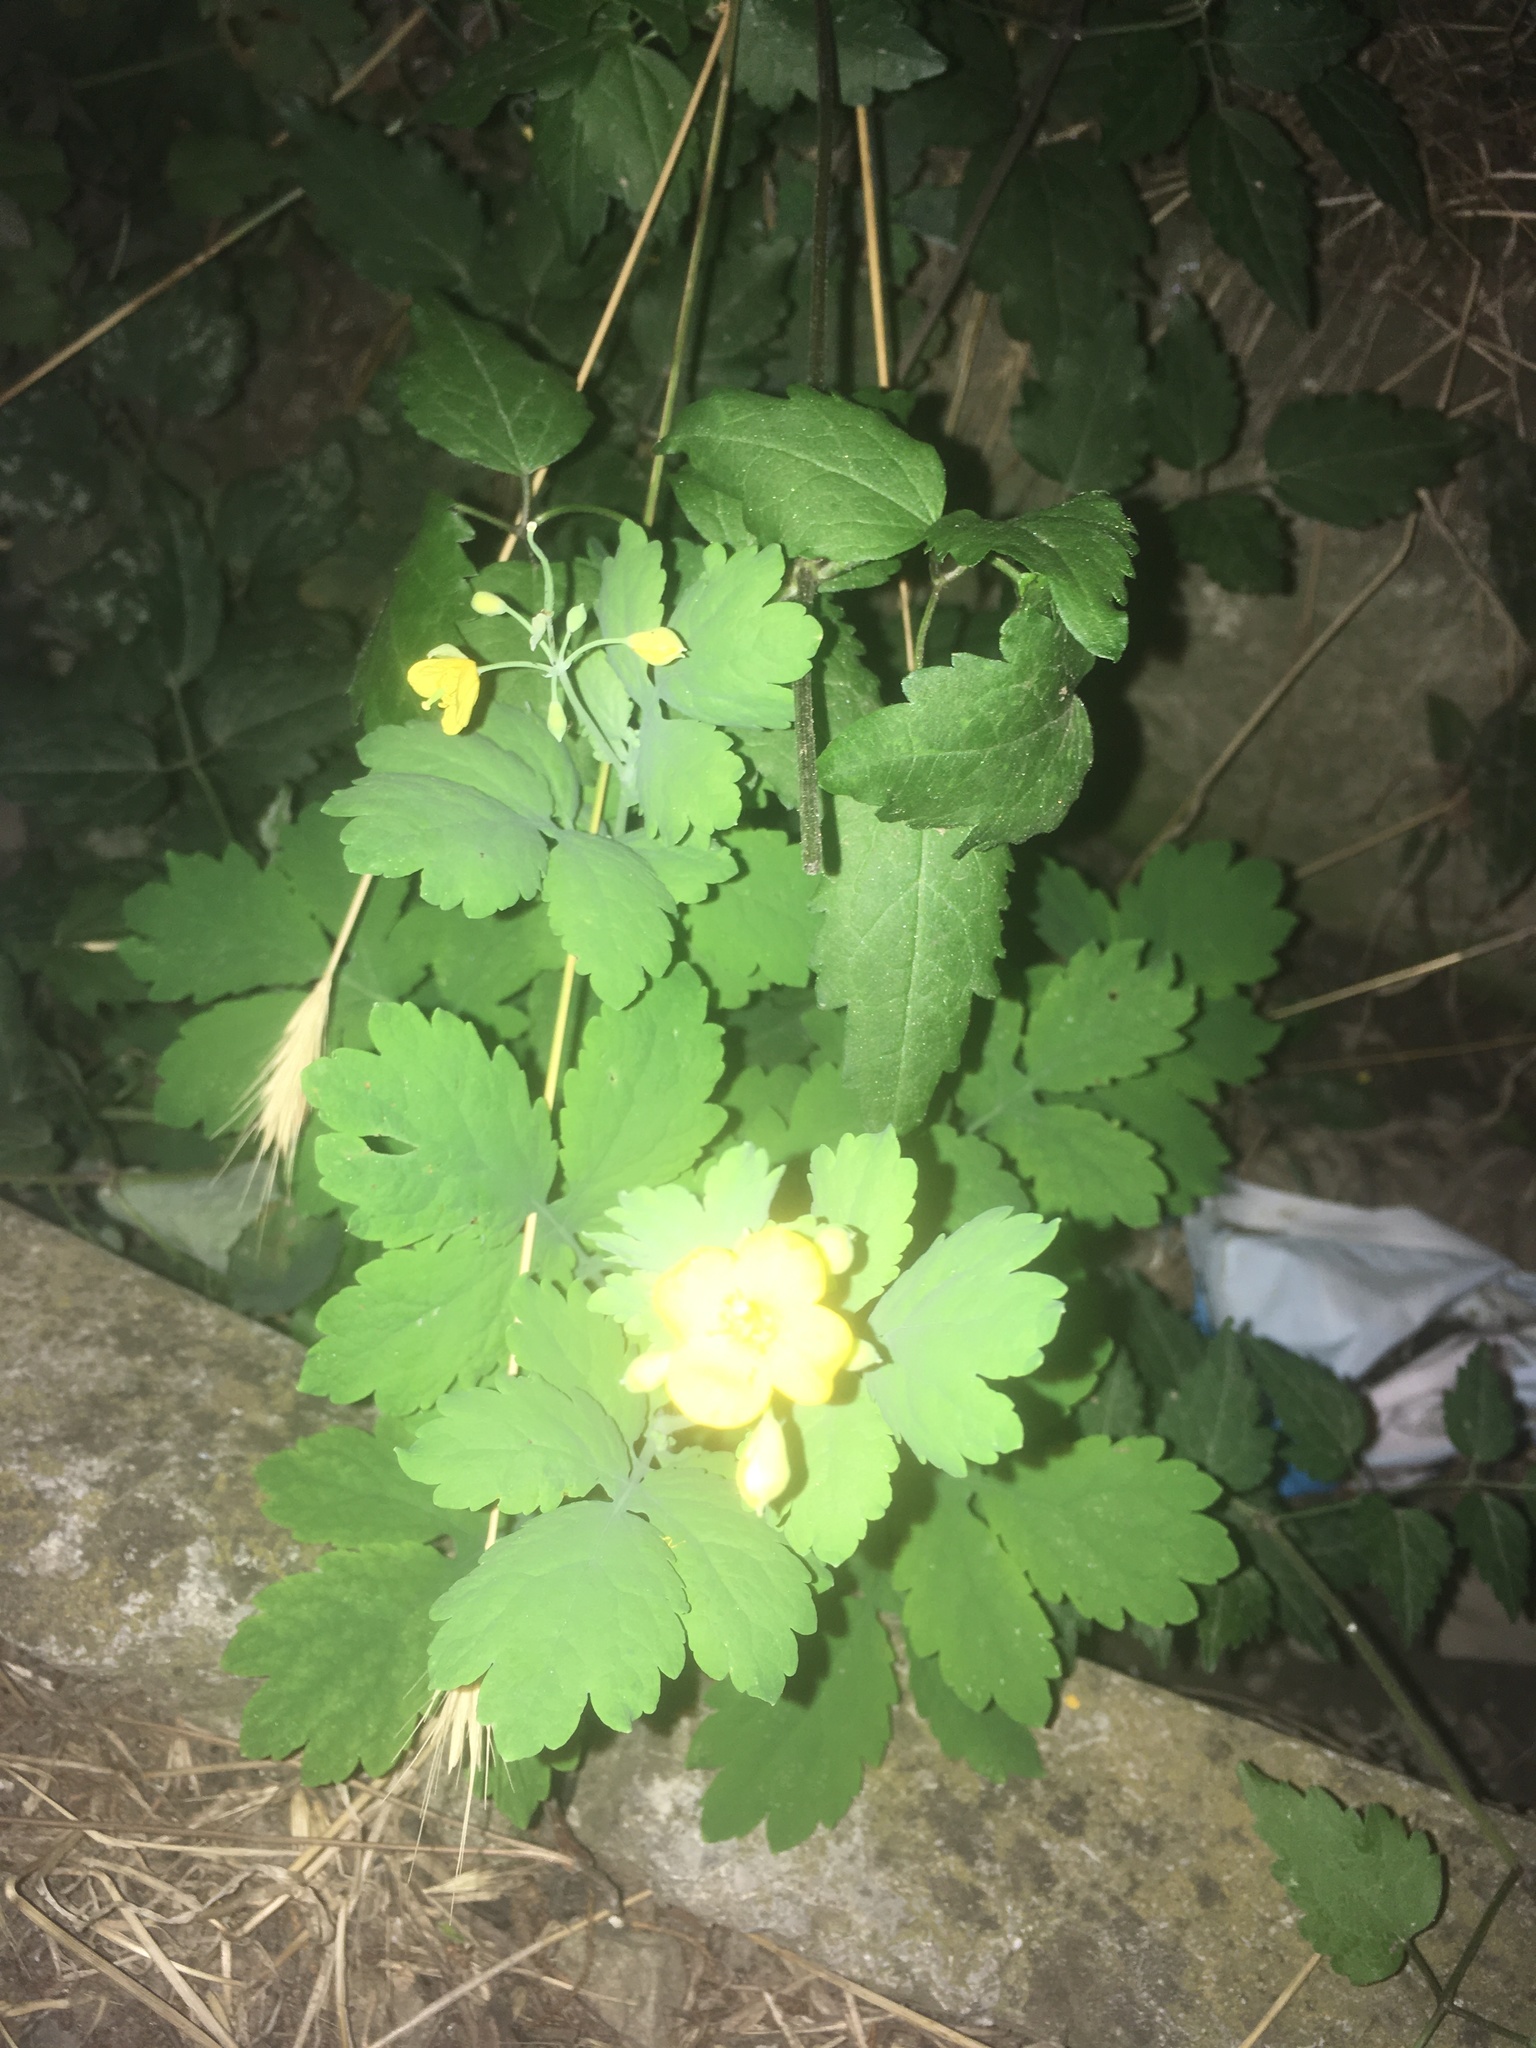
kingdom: Plantae
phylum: Tracheophyta
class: Magnoliopsida
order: Ranunculales
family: Papaveraceae
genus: Chelidonium
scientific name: Chelidonium majus
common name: Greater celandine
